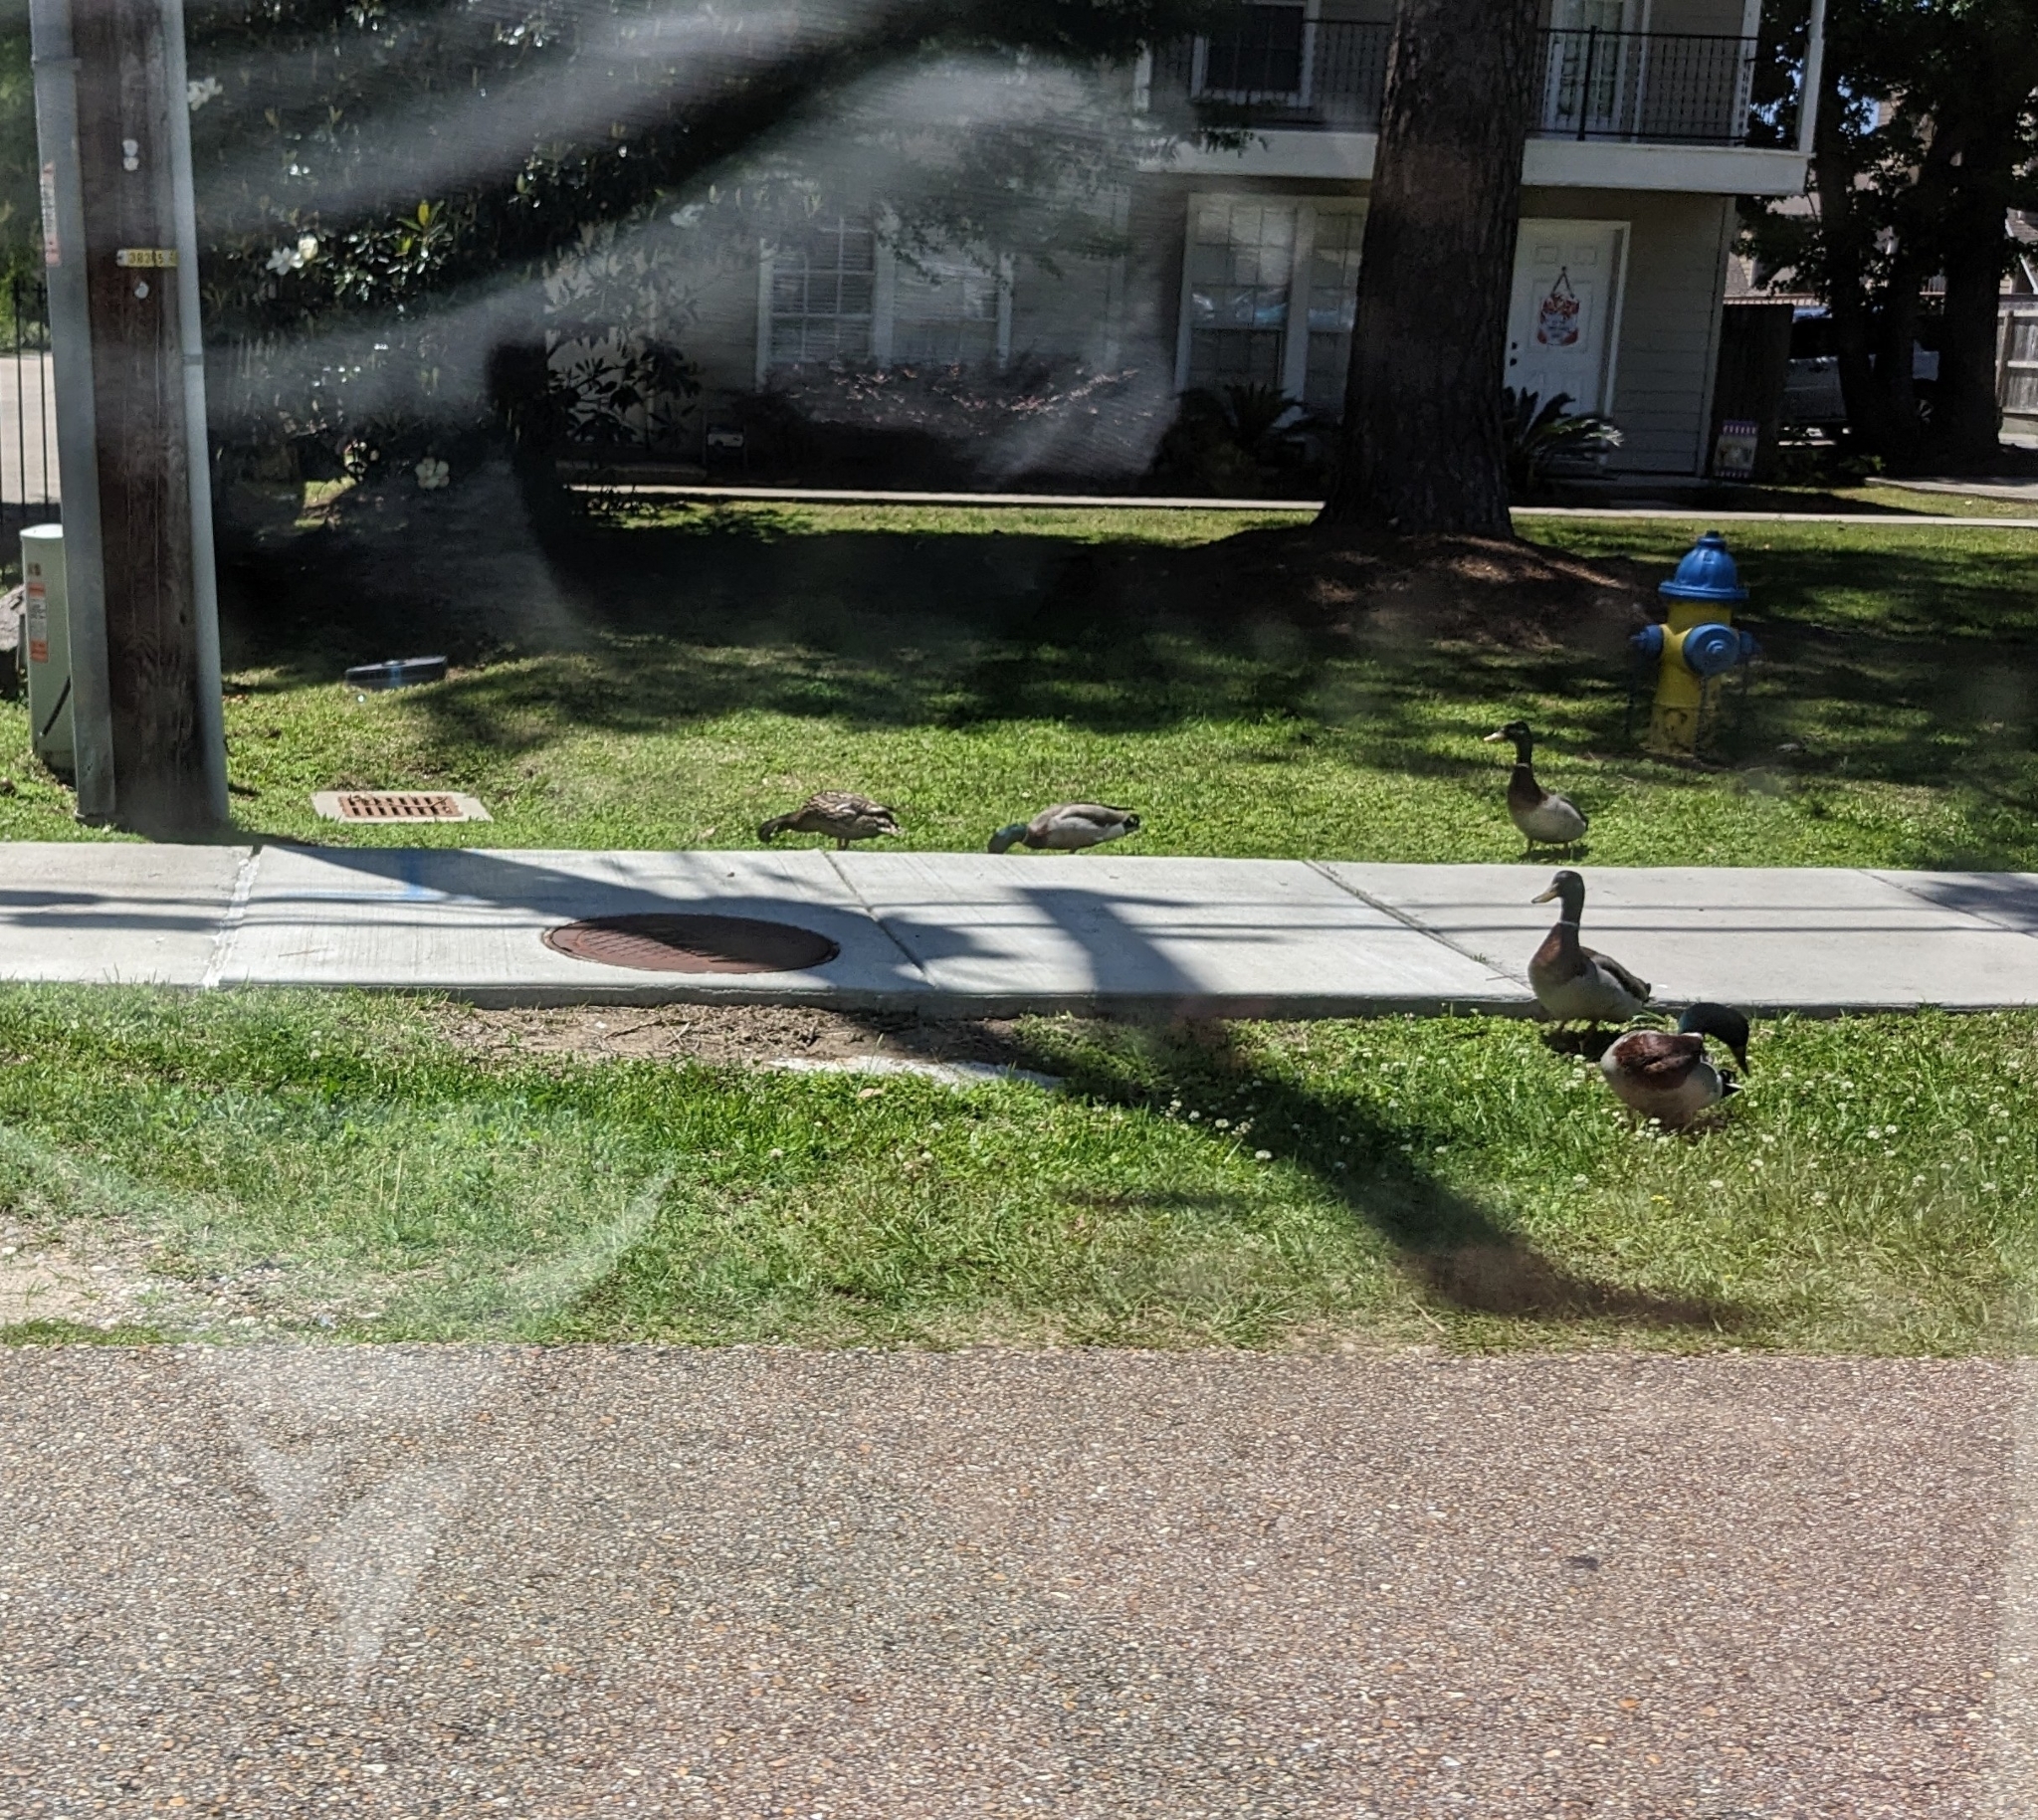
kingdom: Animalia
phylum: Chordata
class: Aves
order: Anseriformes
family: Anatidae
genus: Anas
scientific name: Anas platyrhynchos
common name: Mallard
